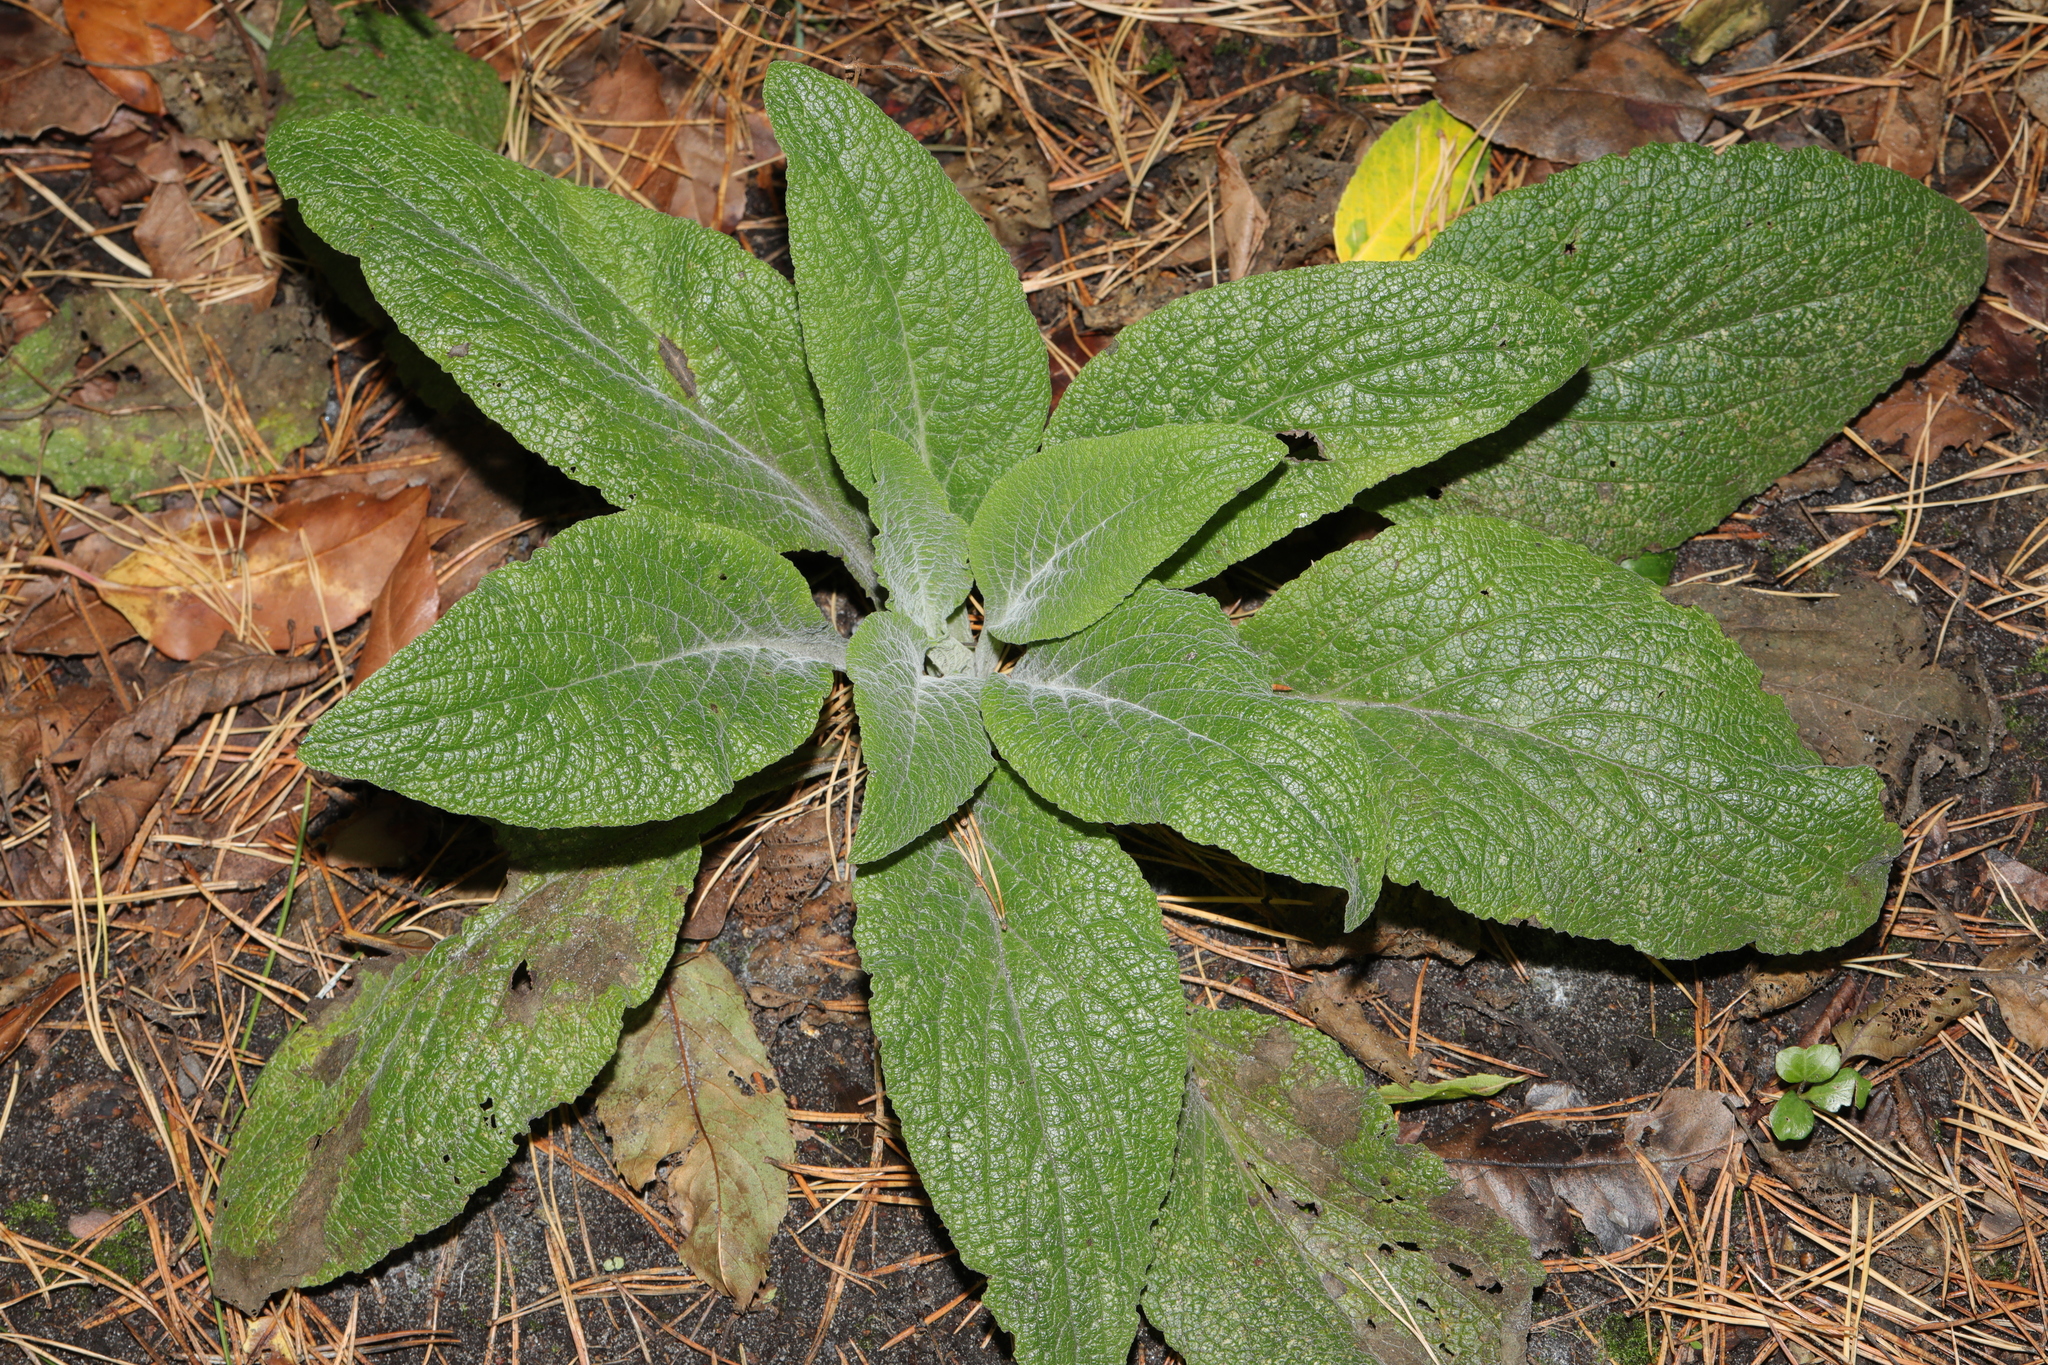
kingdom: Plantae
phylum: Tracheophyta
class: Magnoliopsida
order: Lamiales
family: Plantaginaceae
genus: Digitalis
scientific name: Digitalis purpurea
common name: Foxglove
